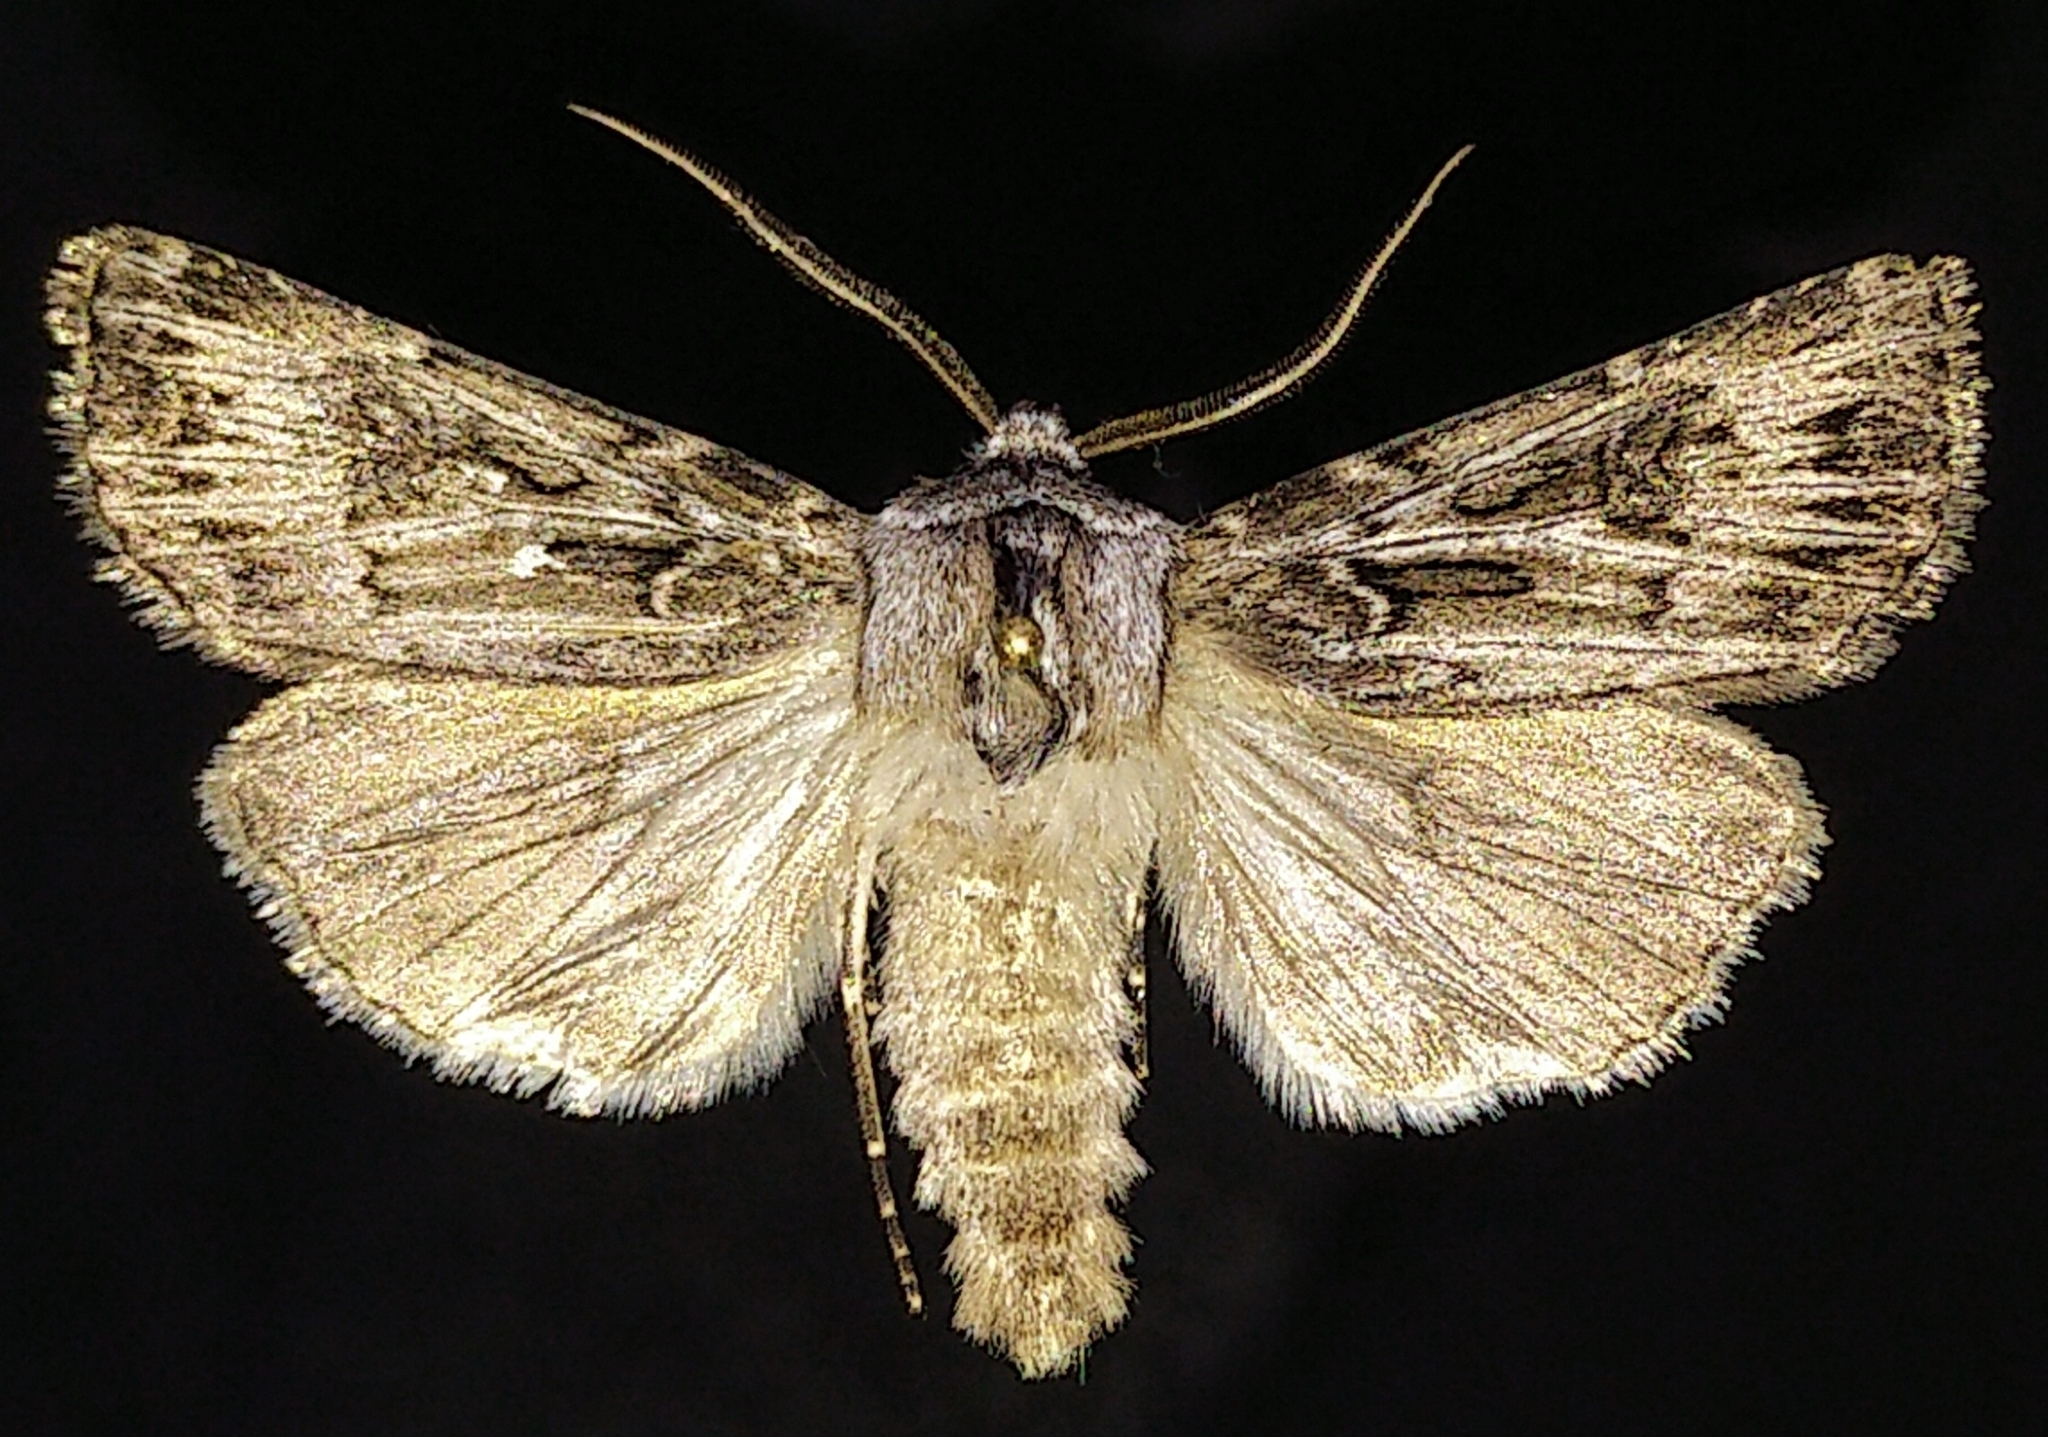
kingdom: Animalia
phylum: Arthropoda
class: Insecta
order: Lepidoptera
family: Noctuidae
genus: Agrotis
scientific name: Agrotis robustior
